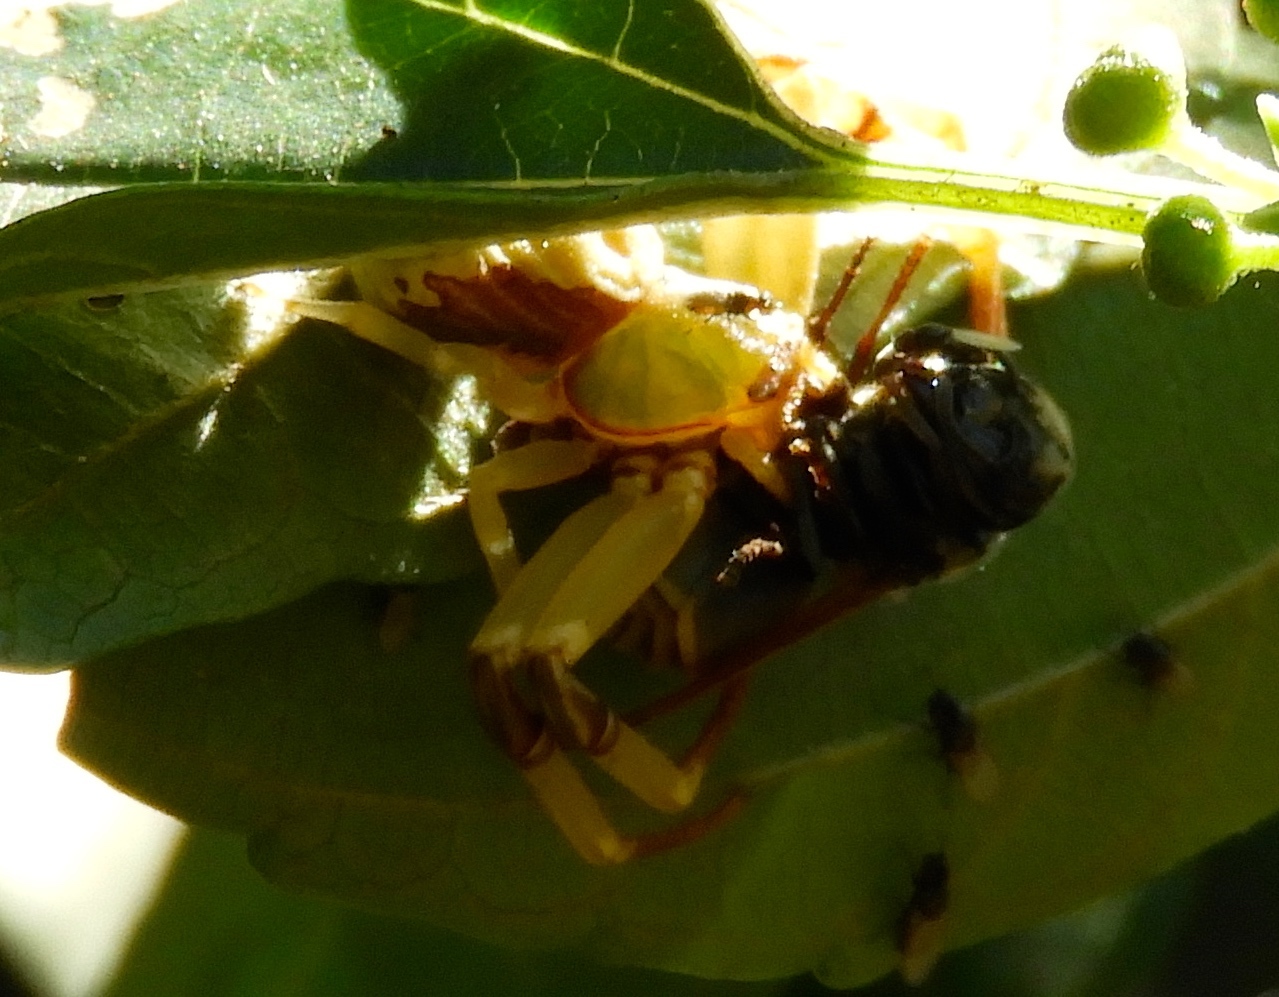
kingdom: Animalia
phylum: Arthropoda
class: Arachnida
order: Araneae
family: Thomisidae
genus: Misumenoides
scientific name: Misumenoides
